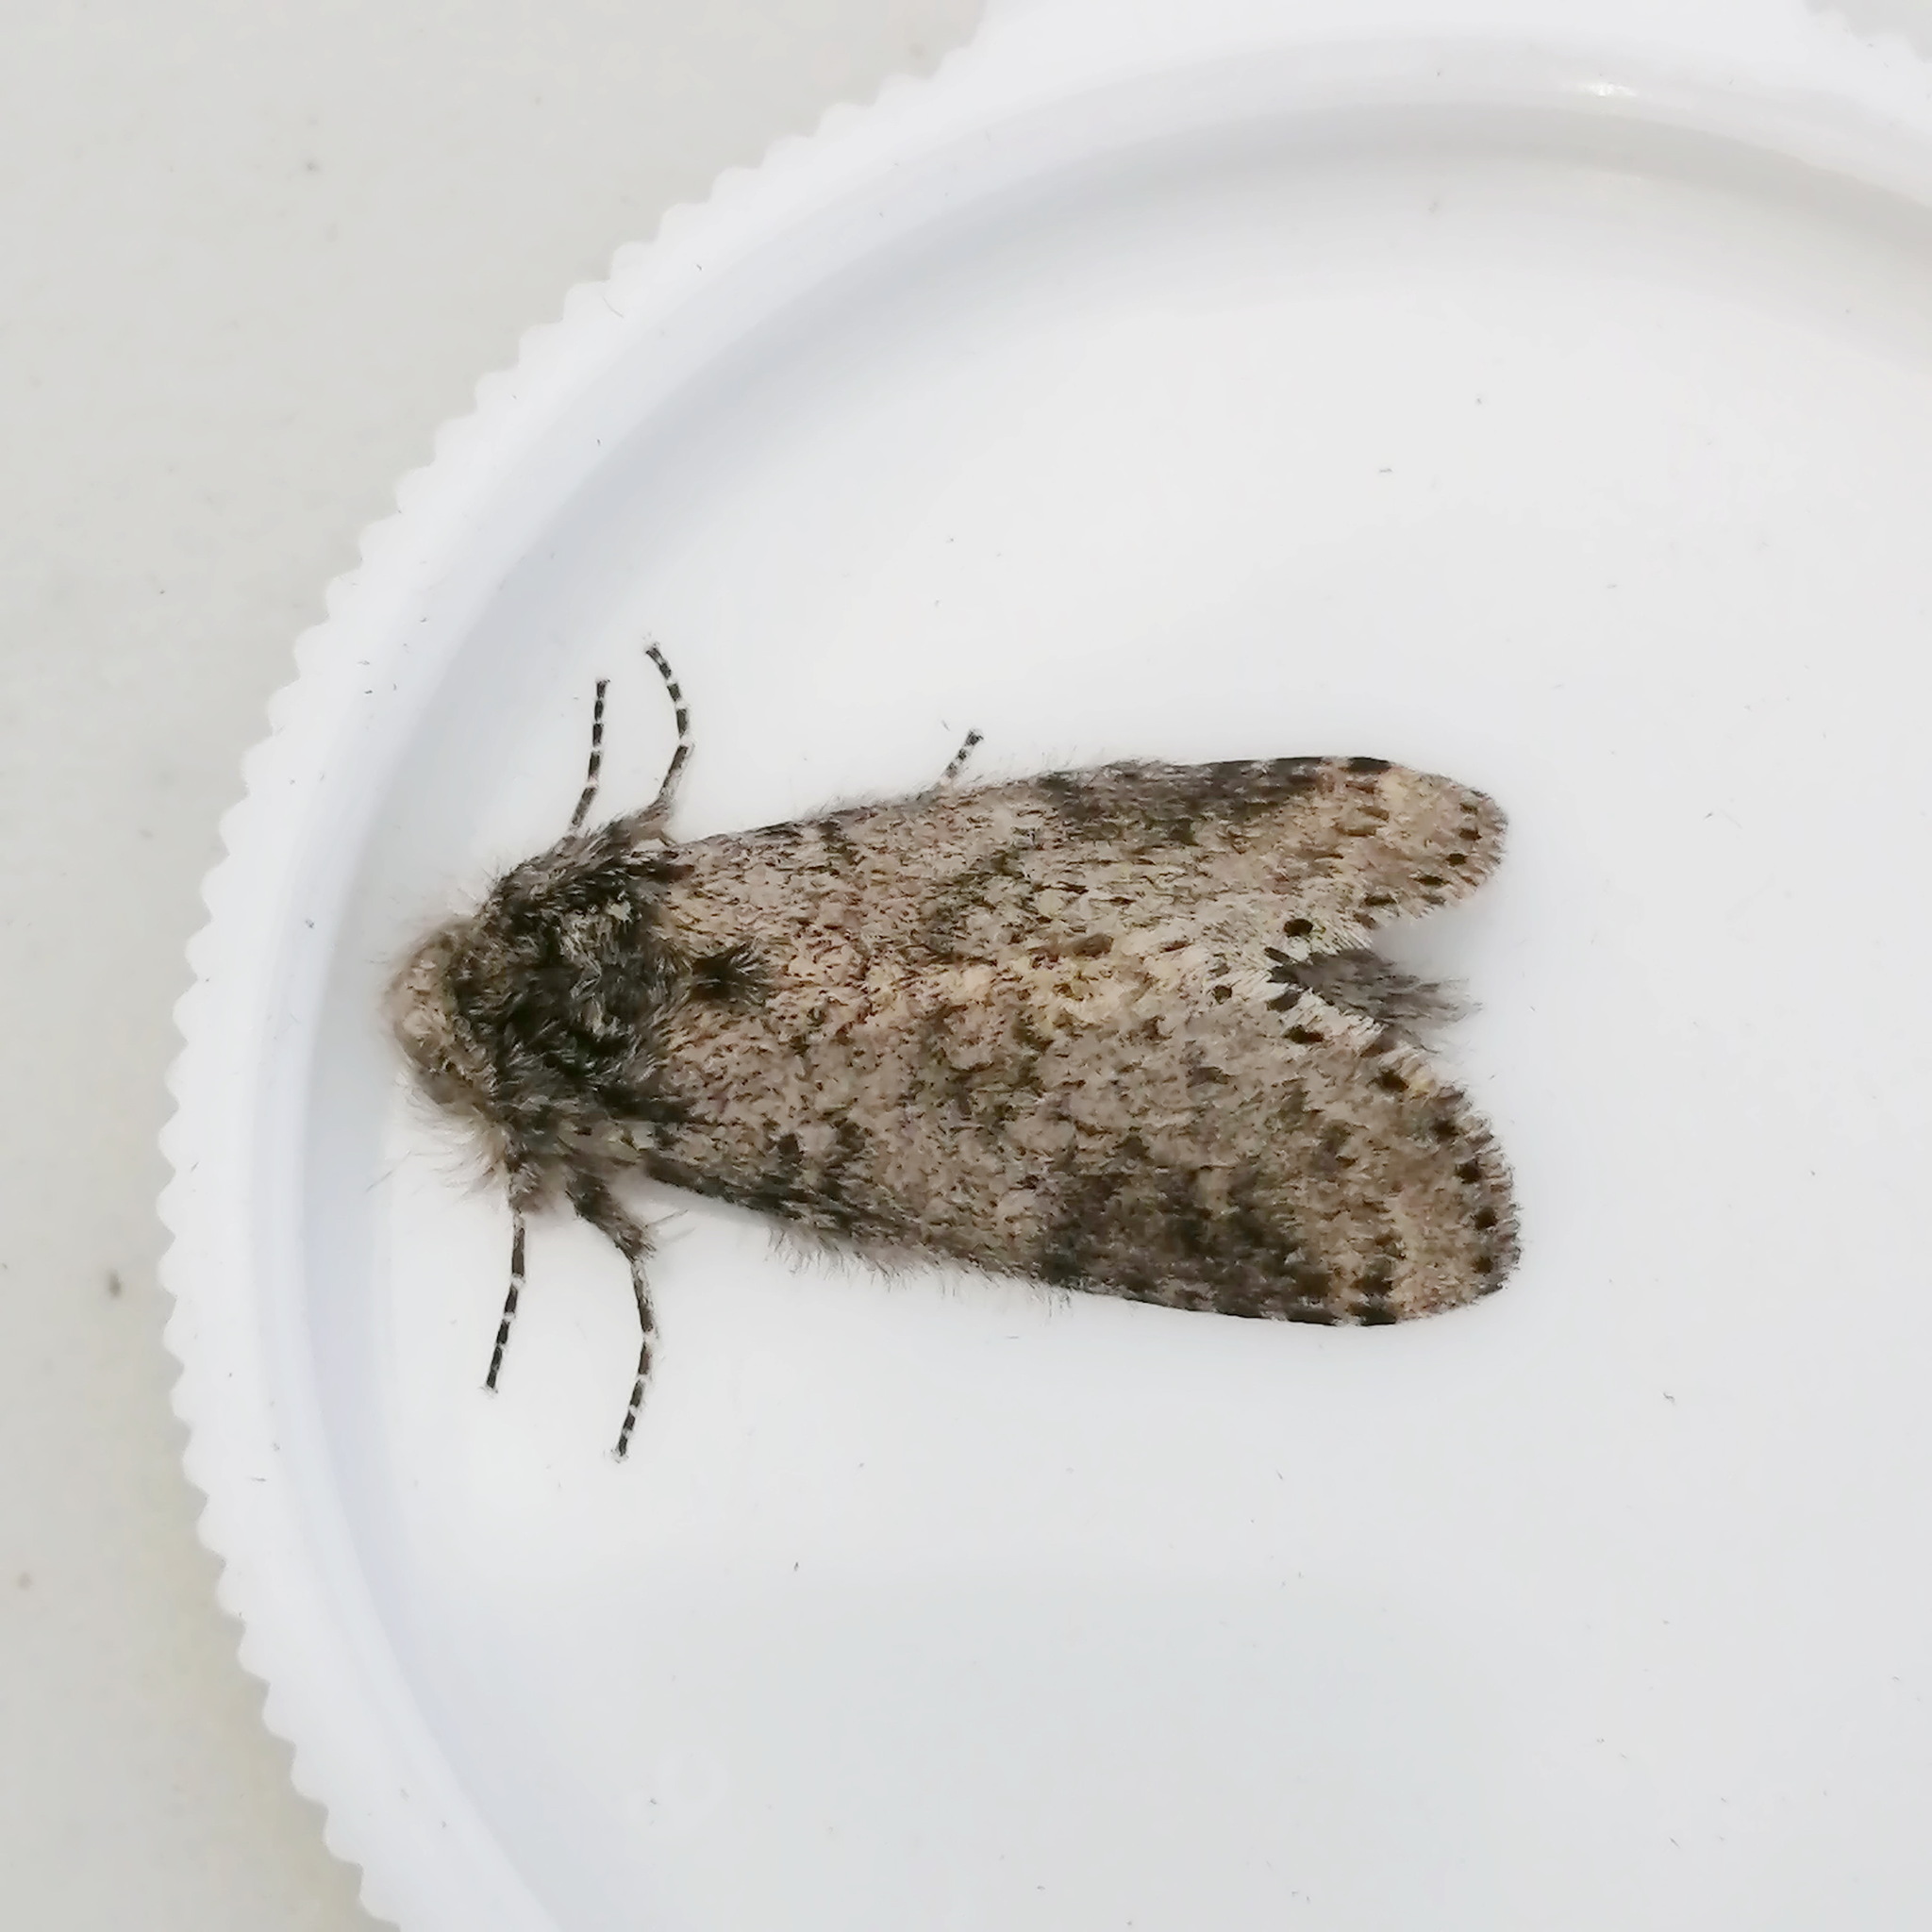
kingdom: Animalia
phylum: Arthropoda
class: Insecta
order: Lepidoptera
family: Notodontidae
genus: Lochmaeus
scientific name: Lochmaeus manteo
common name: Variable oakleaf caterpillar moth
